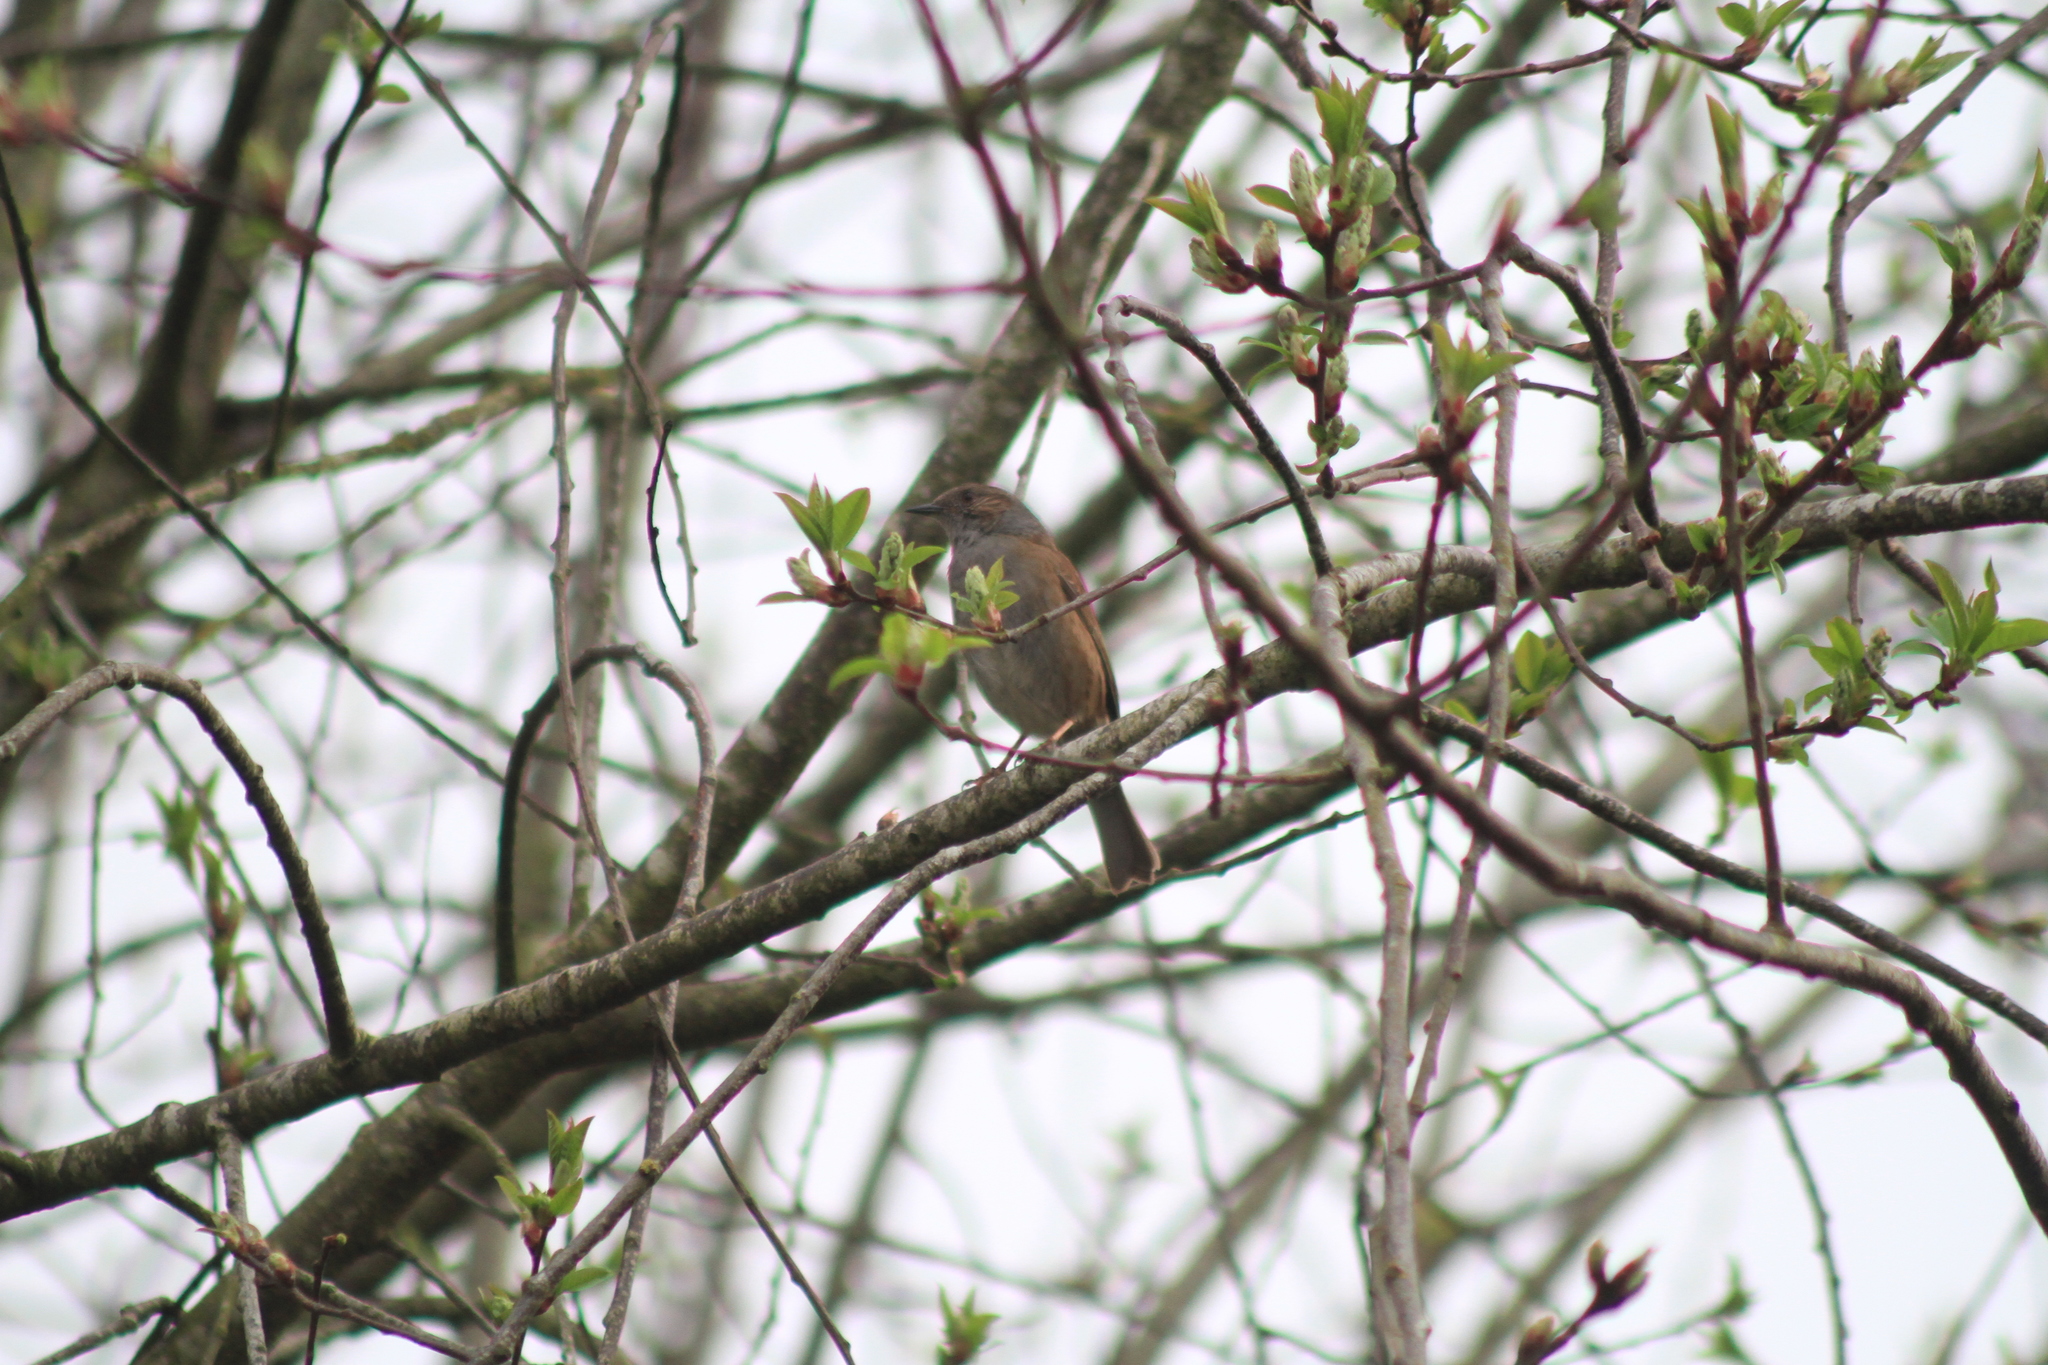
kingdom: Animalia
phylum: Chordata
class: Aves
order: Passeriformes
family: Prunellidae
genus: Prunella
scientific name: Prunella modularis
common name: Dunnock
